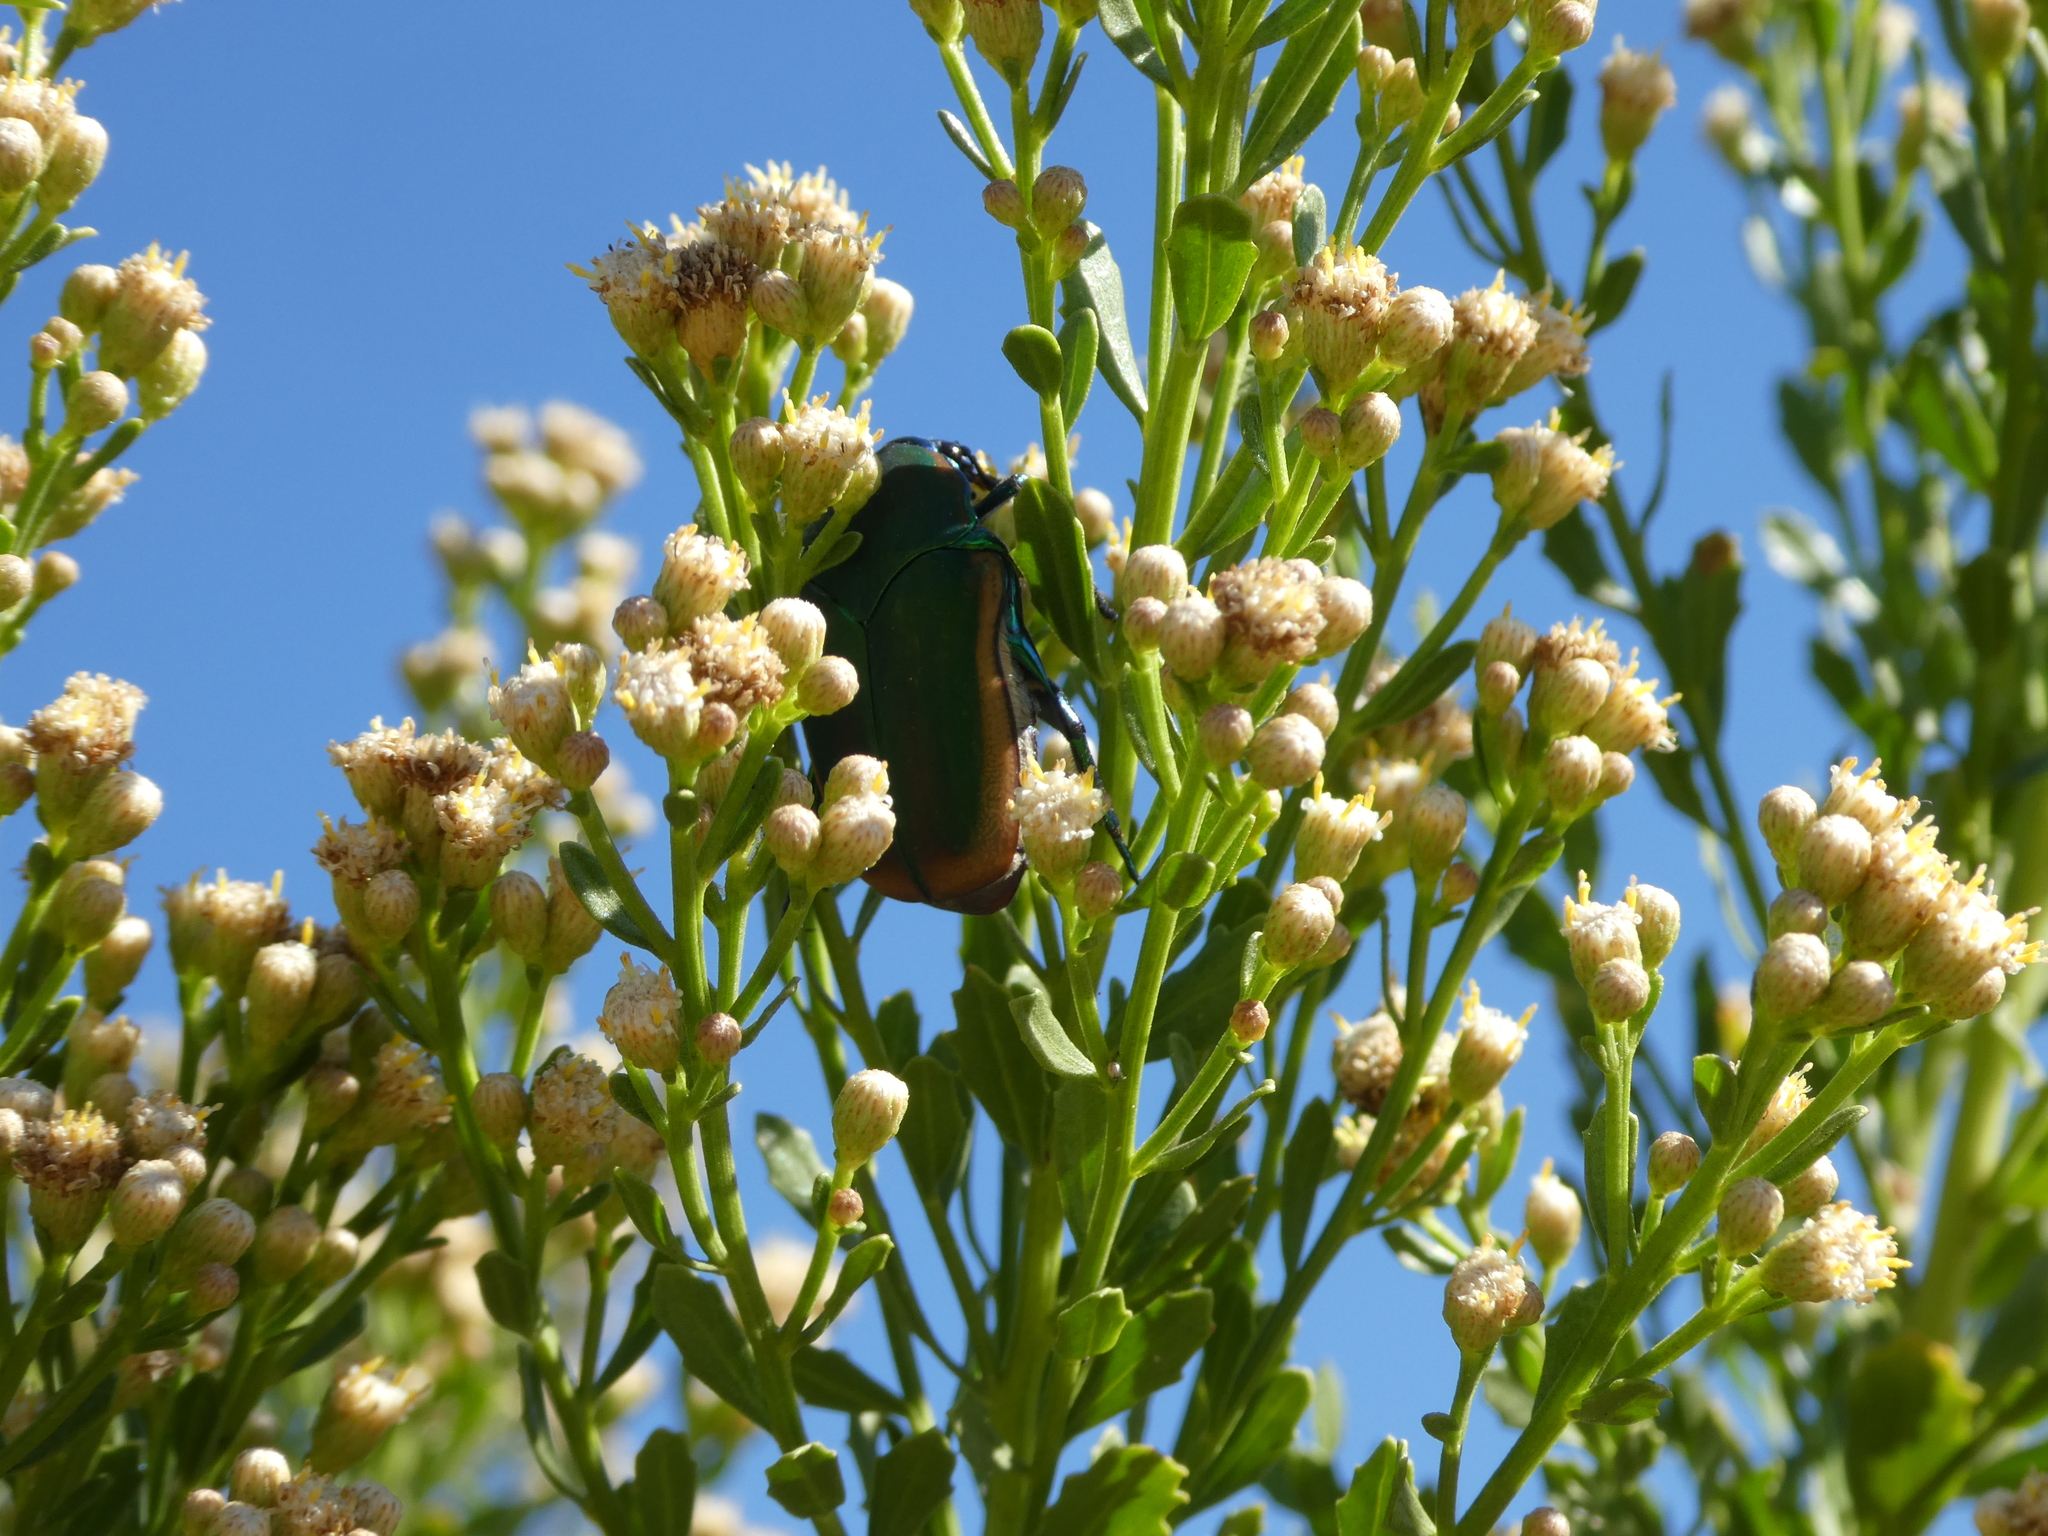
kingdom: Animalia
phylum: Arthropoda
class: Insecta
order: Coleoptera
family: Scarabaeidae
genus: Cotinis
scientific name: Cotinis mutabilis
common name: Figeater beetle
